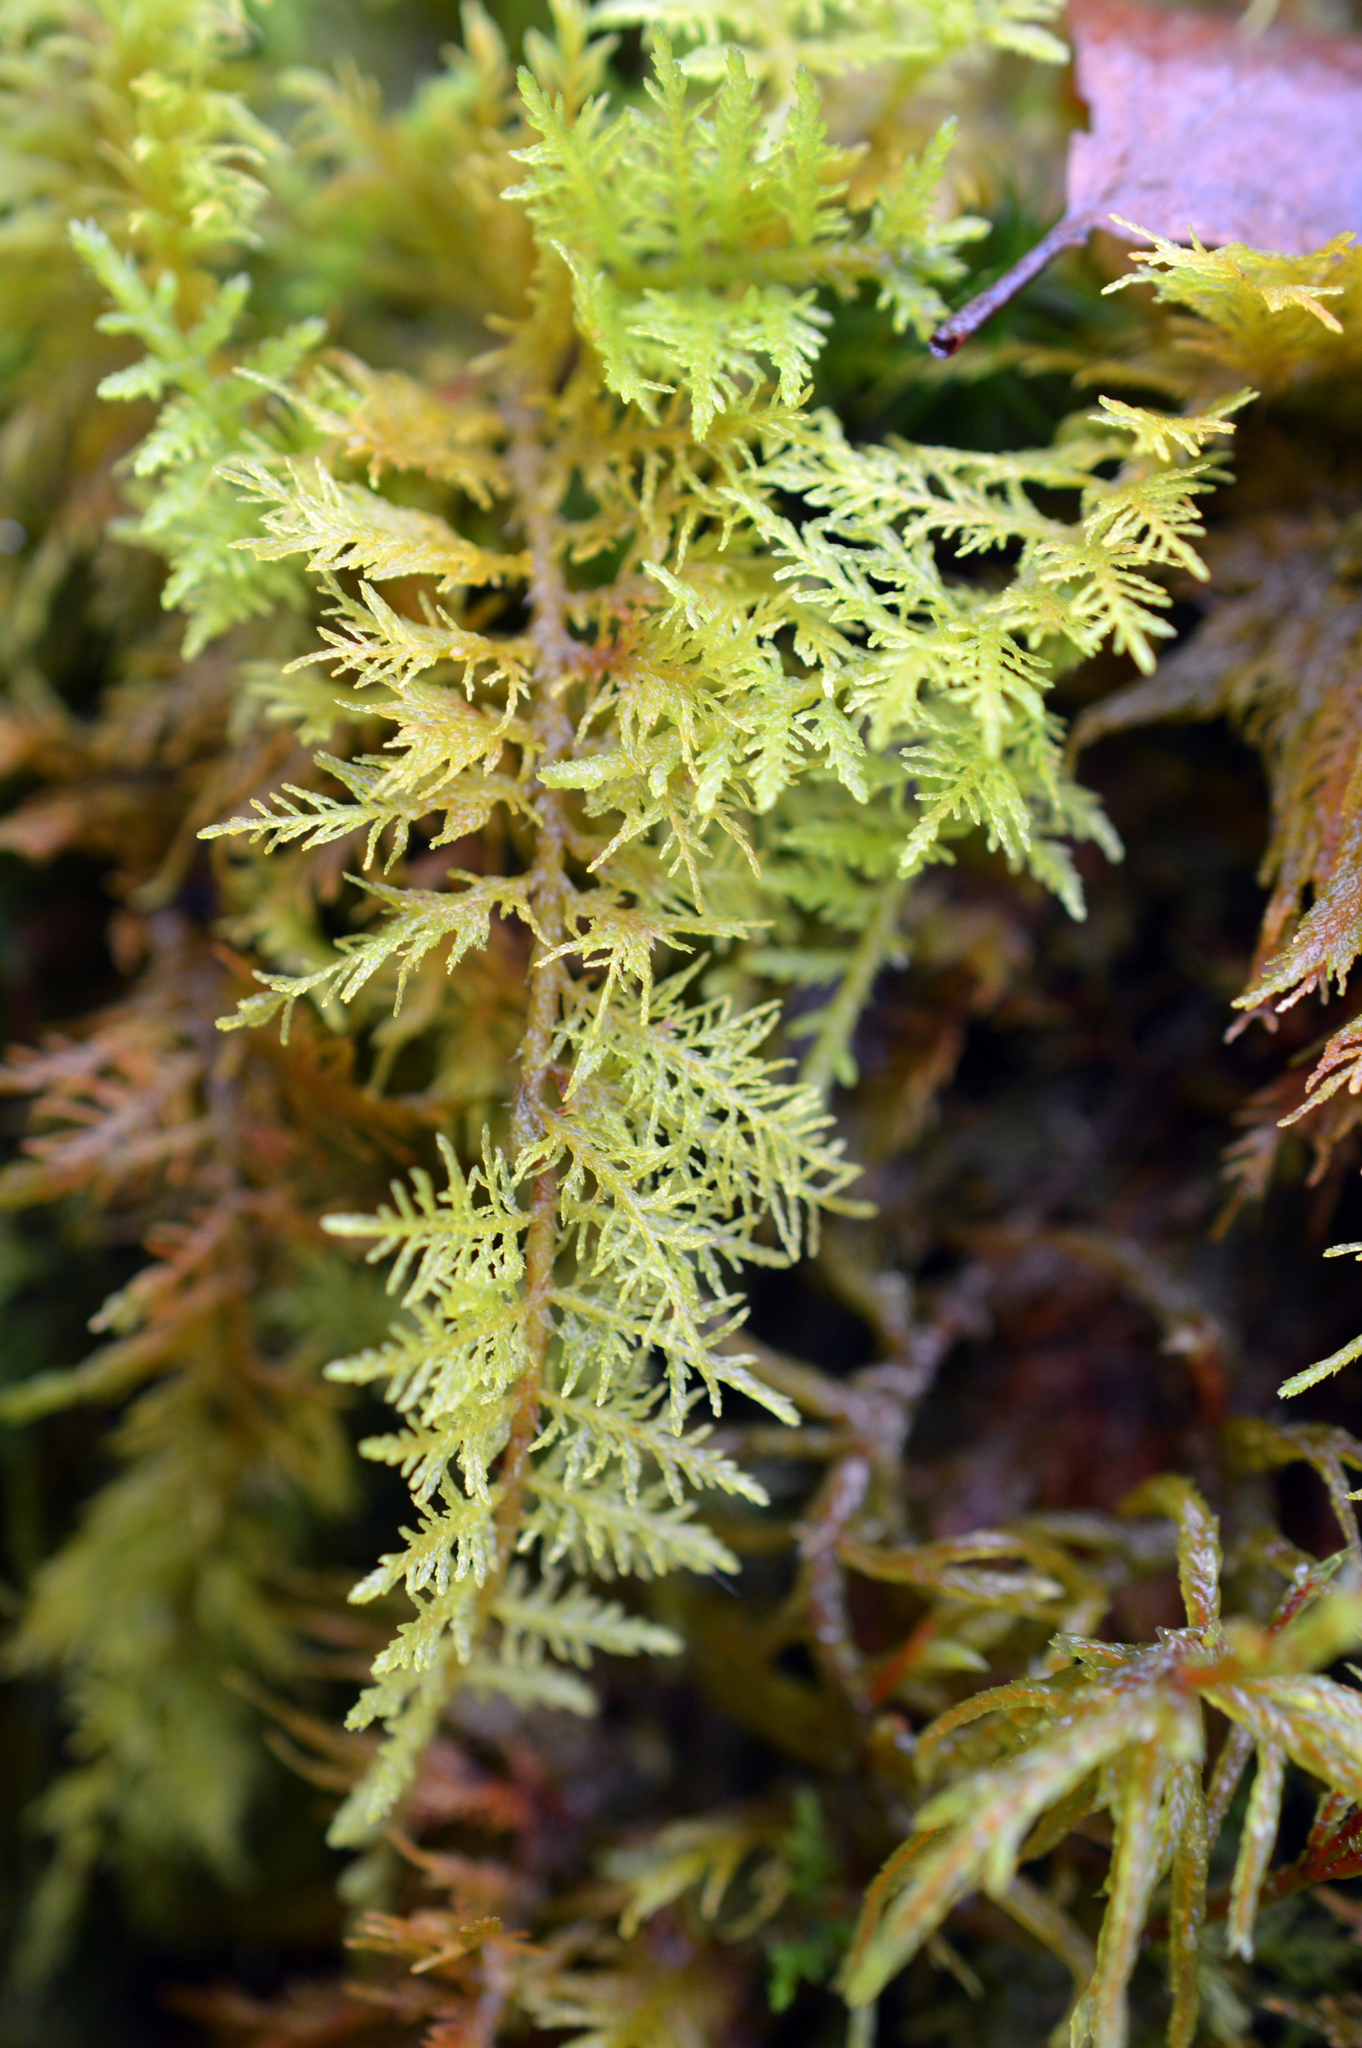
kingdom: Plantae
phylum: Bryophyta
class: Bryopsida
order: Hypnales
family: Thuidiaceae
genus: Thuidium
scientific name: Thuidium tamariscinum
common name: Common tamarisk-moss
